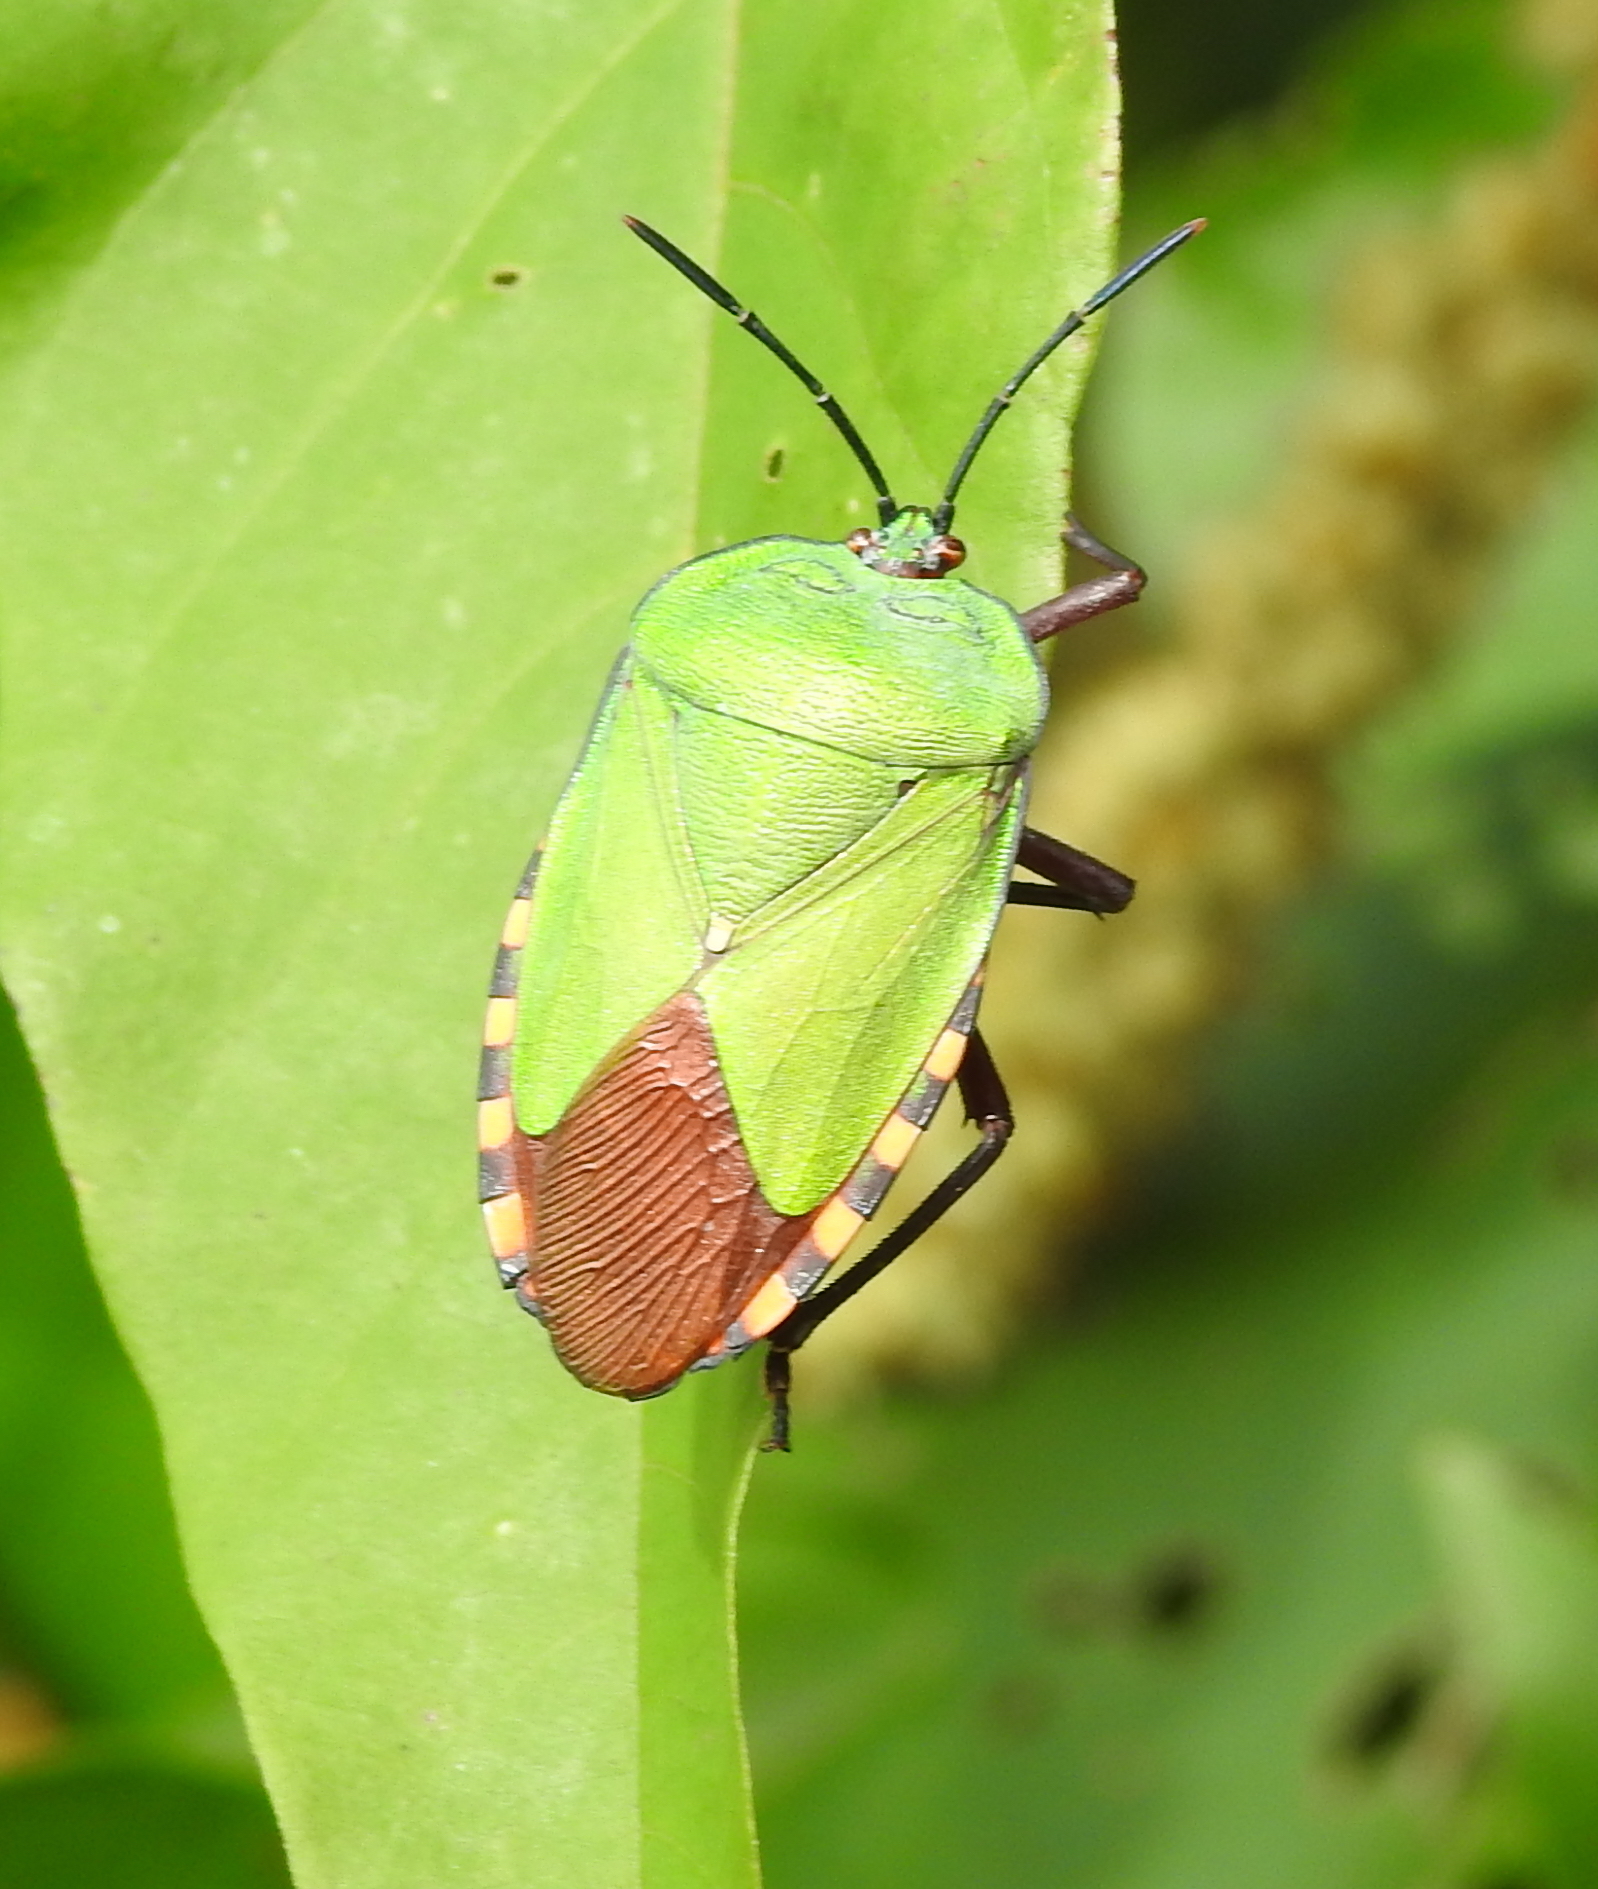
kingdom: Animalia
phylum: Arthropoda
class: Insecta
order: Hemiptera
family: Tessaratomidae
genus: Pycanum
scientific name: Pycanum alternatum
